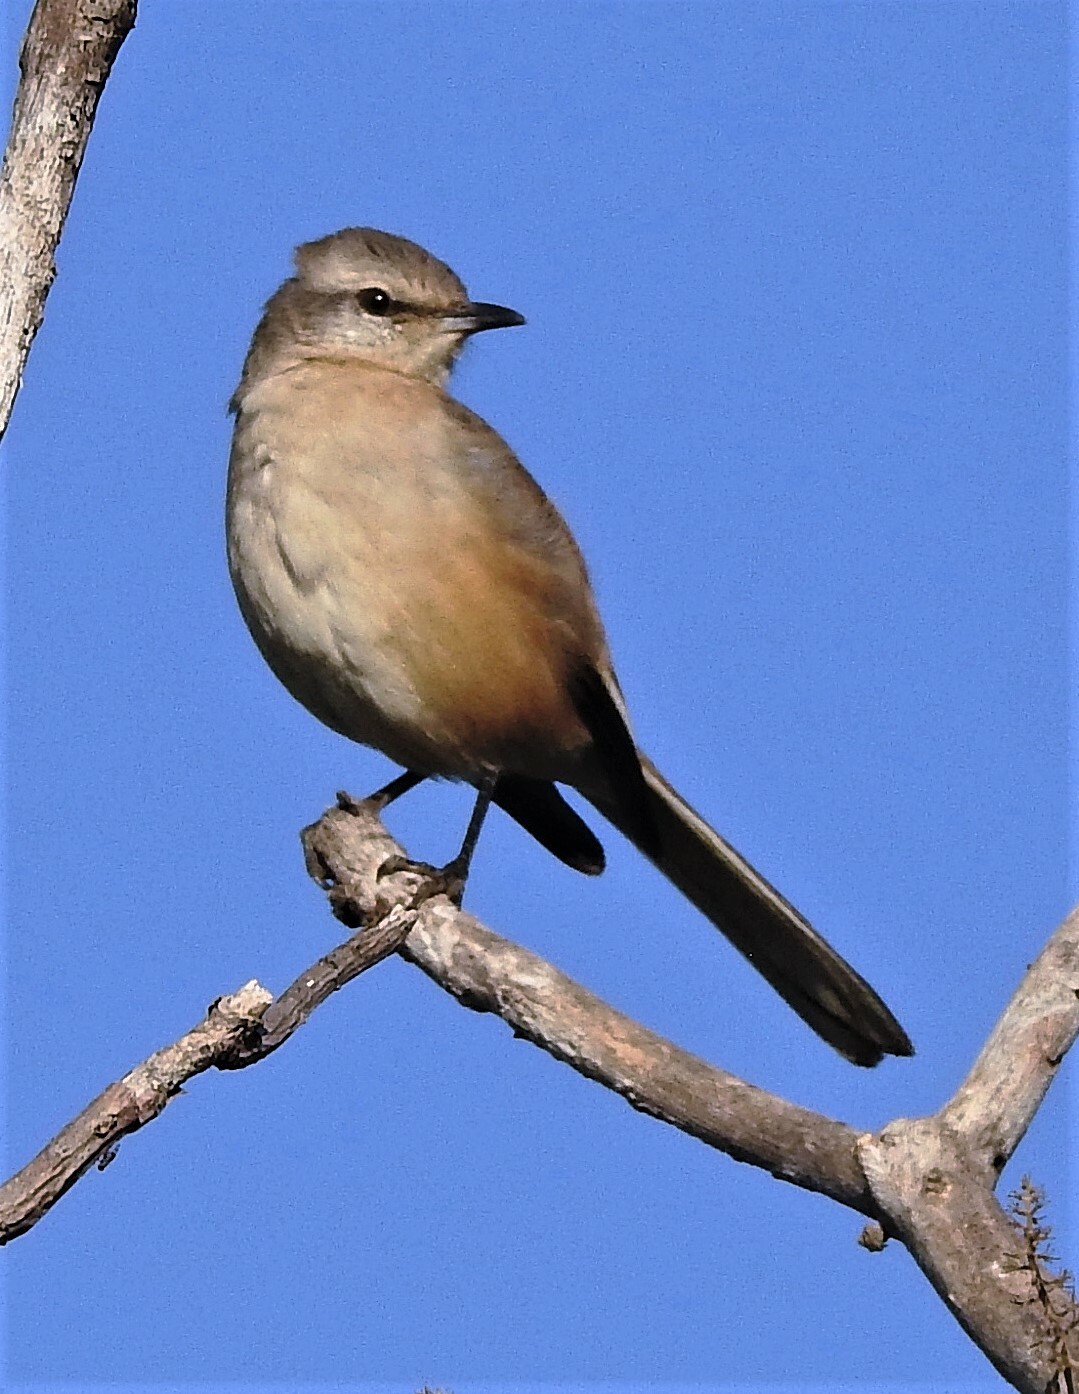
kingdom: Animalia
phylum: Chordata
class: Aves
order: Passeriformes
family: Mimidae
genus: Mimus
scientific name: Mimus triurus
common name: White-banded mockingbird
